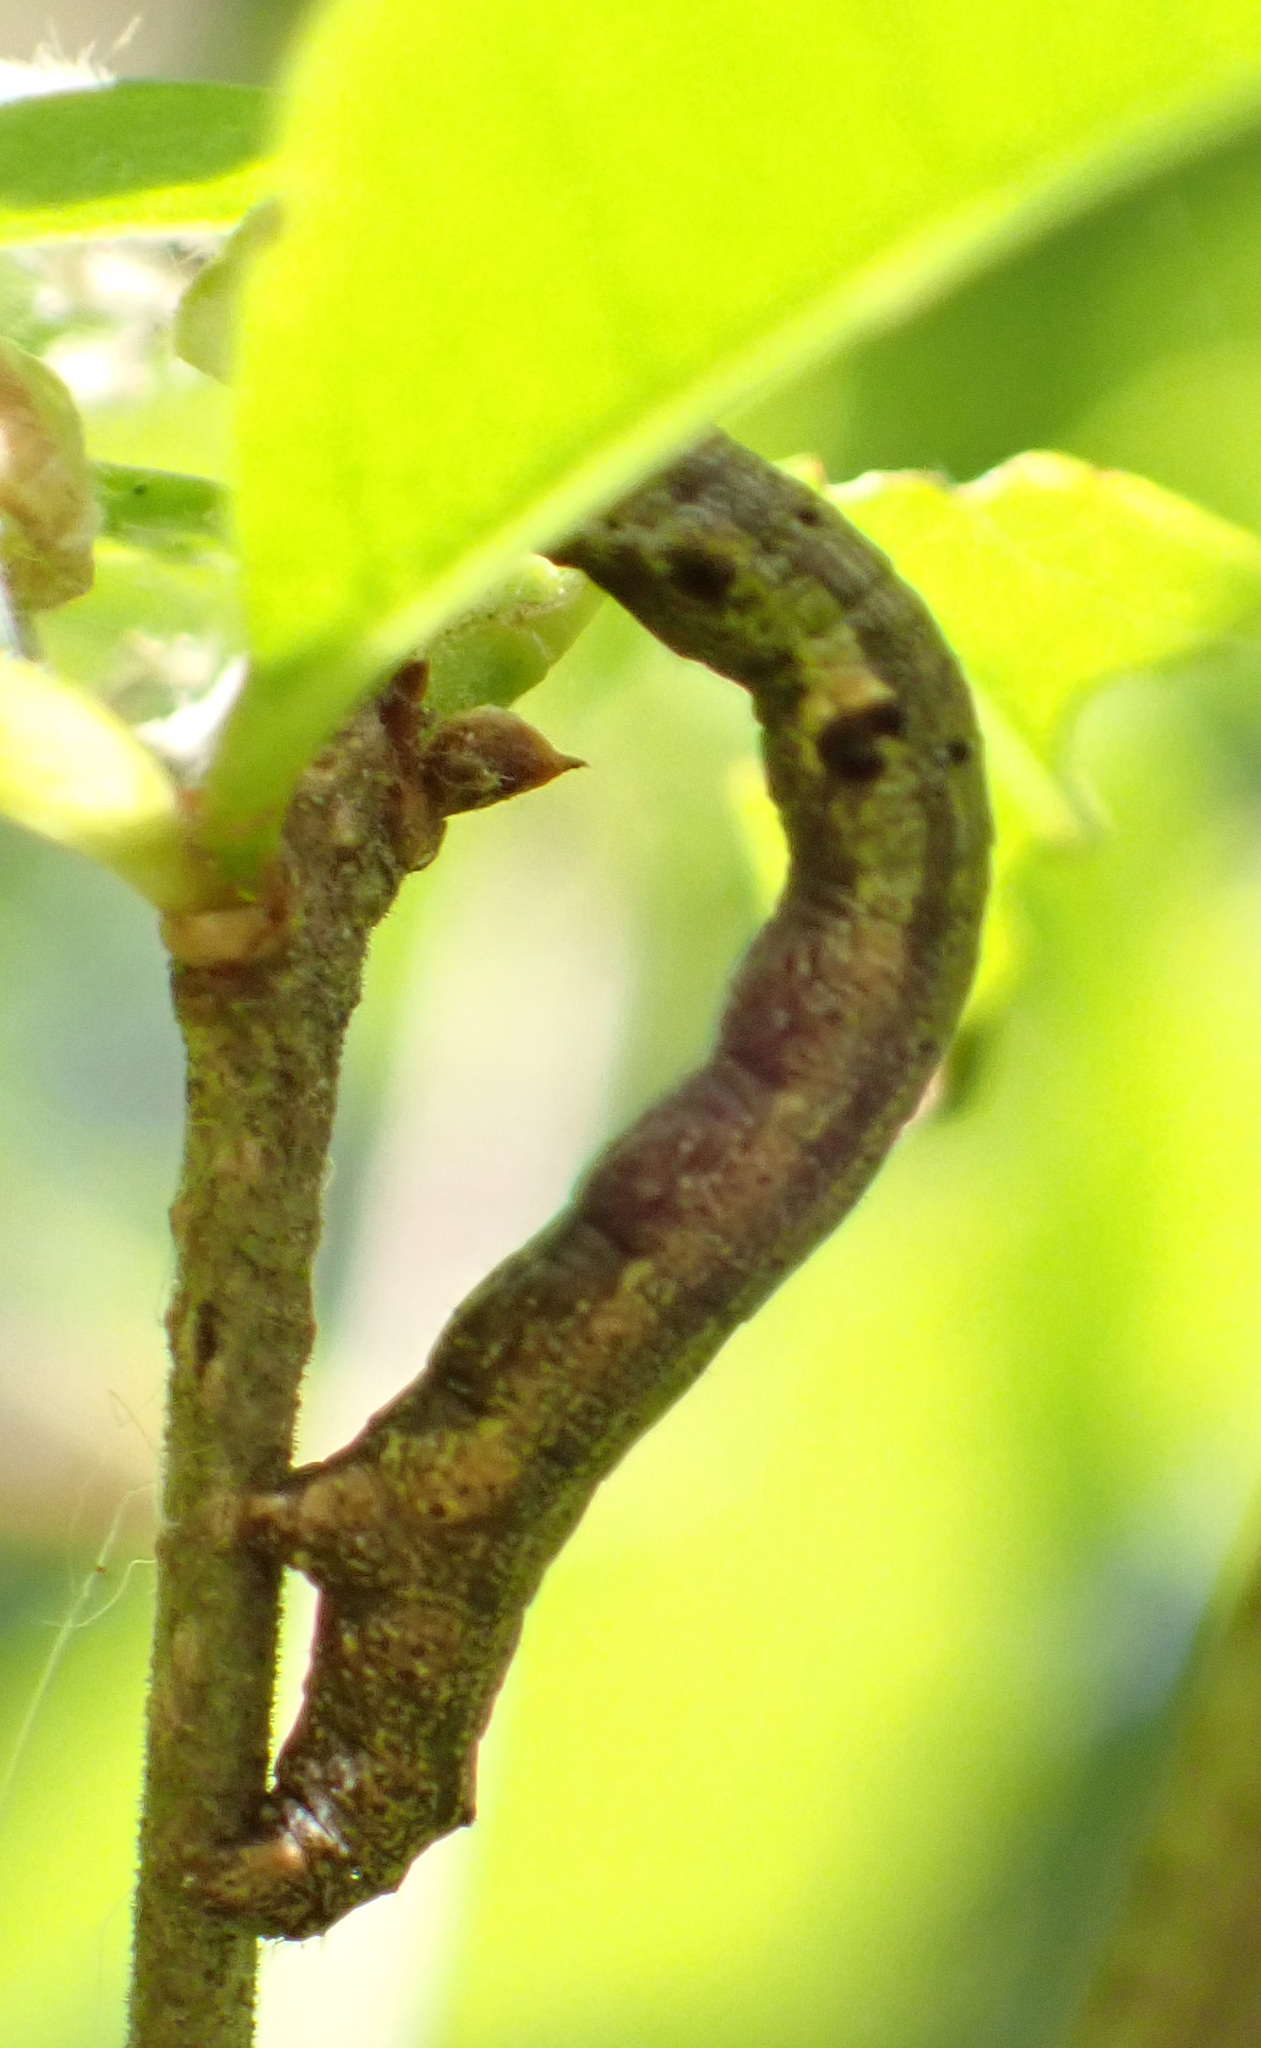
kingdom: Animalia
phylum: Arthropoda
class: Insecta
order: Lepidoptera
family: Geometridae
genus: Colotois
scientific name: Colotois pennaria
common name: Feathered thorn
